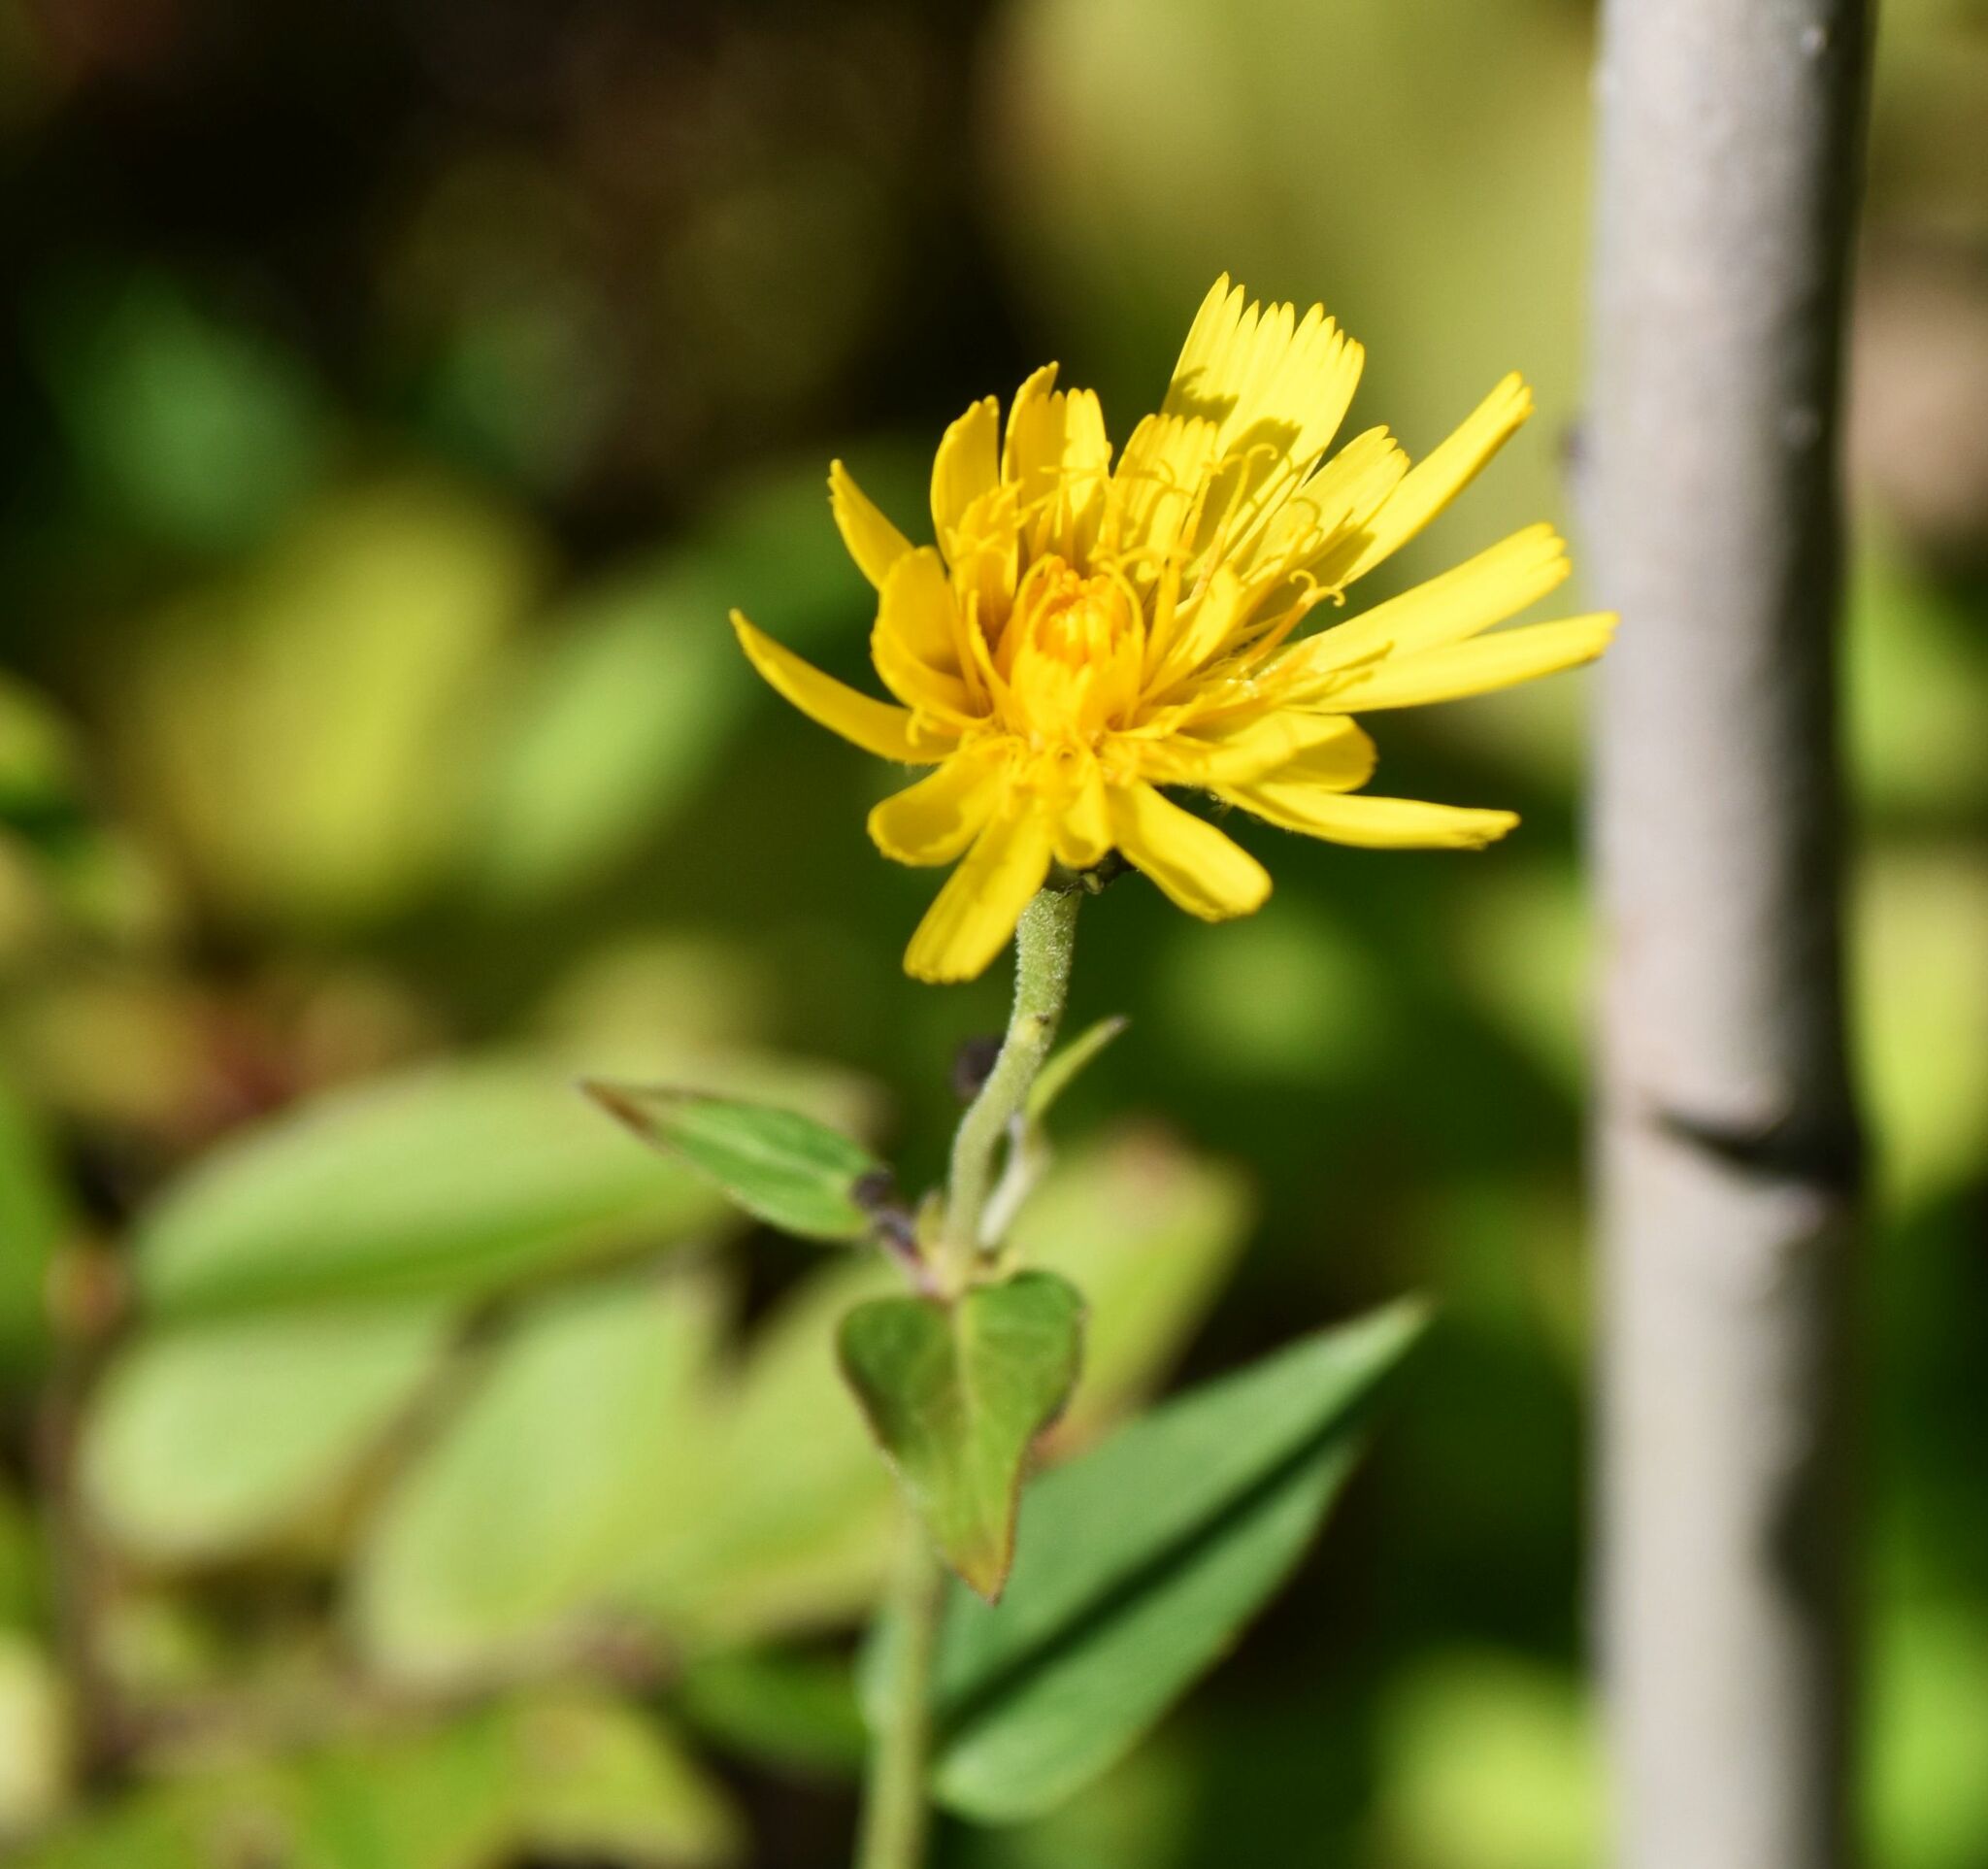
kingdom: Plantae
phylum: Tracheophyta
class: Magnoliopsida
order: Asterales
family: Asteraceae
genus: Hieracium
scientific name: Hieracium umbellatum
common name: Northern hawkweed
